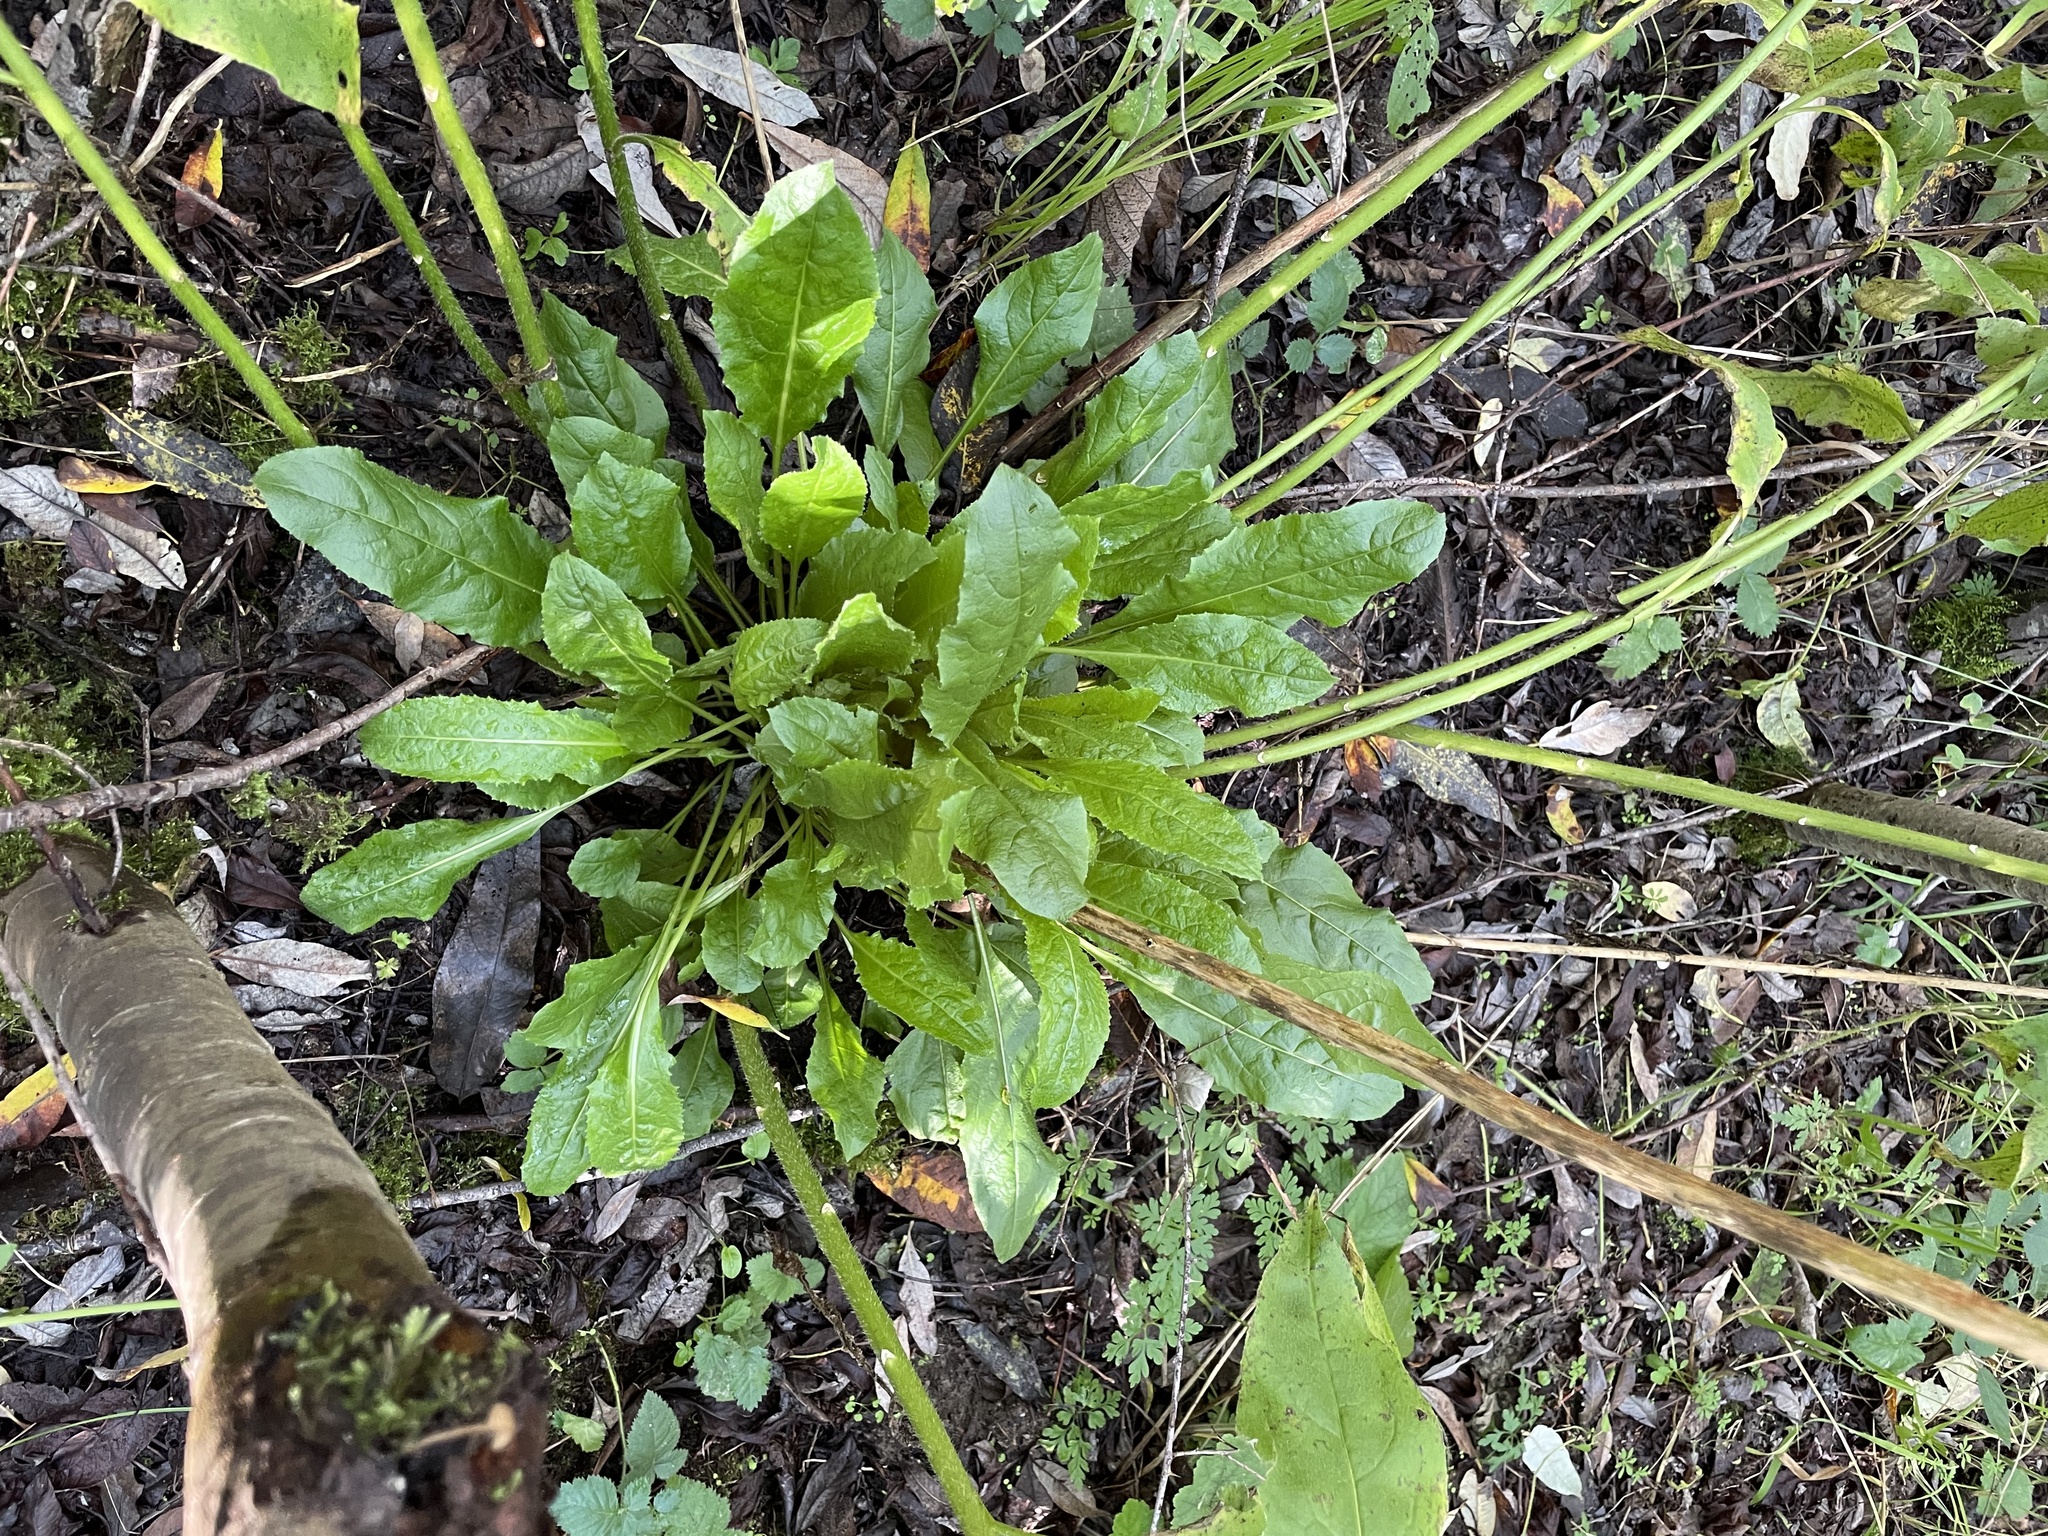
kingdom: Plantae
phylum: Tracheophyta
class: Magnoliopsida
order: Brassicales
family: Brassicaceae
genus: Hesperis
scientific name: Hesperis matronalis
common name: Dame's-violet
